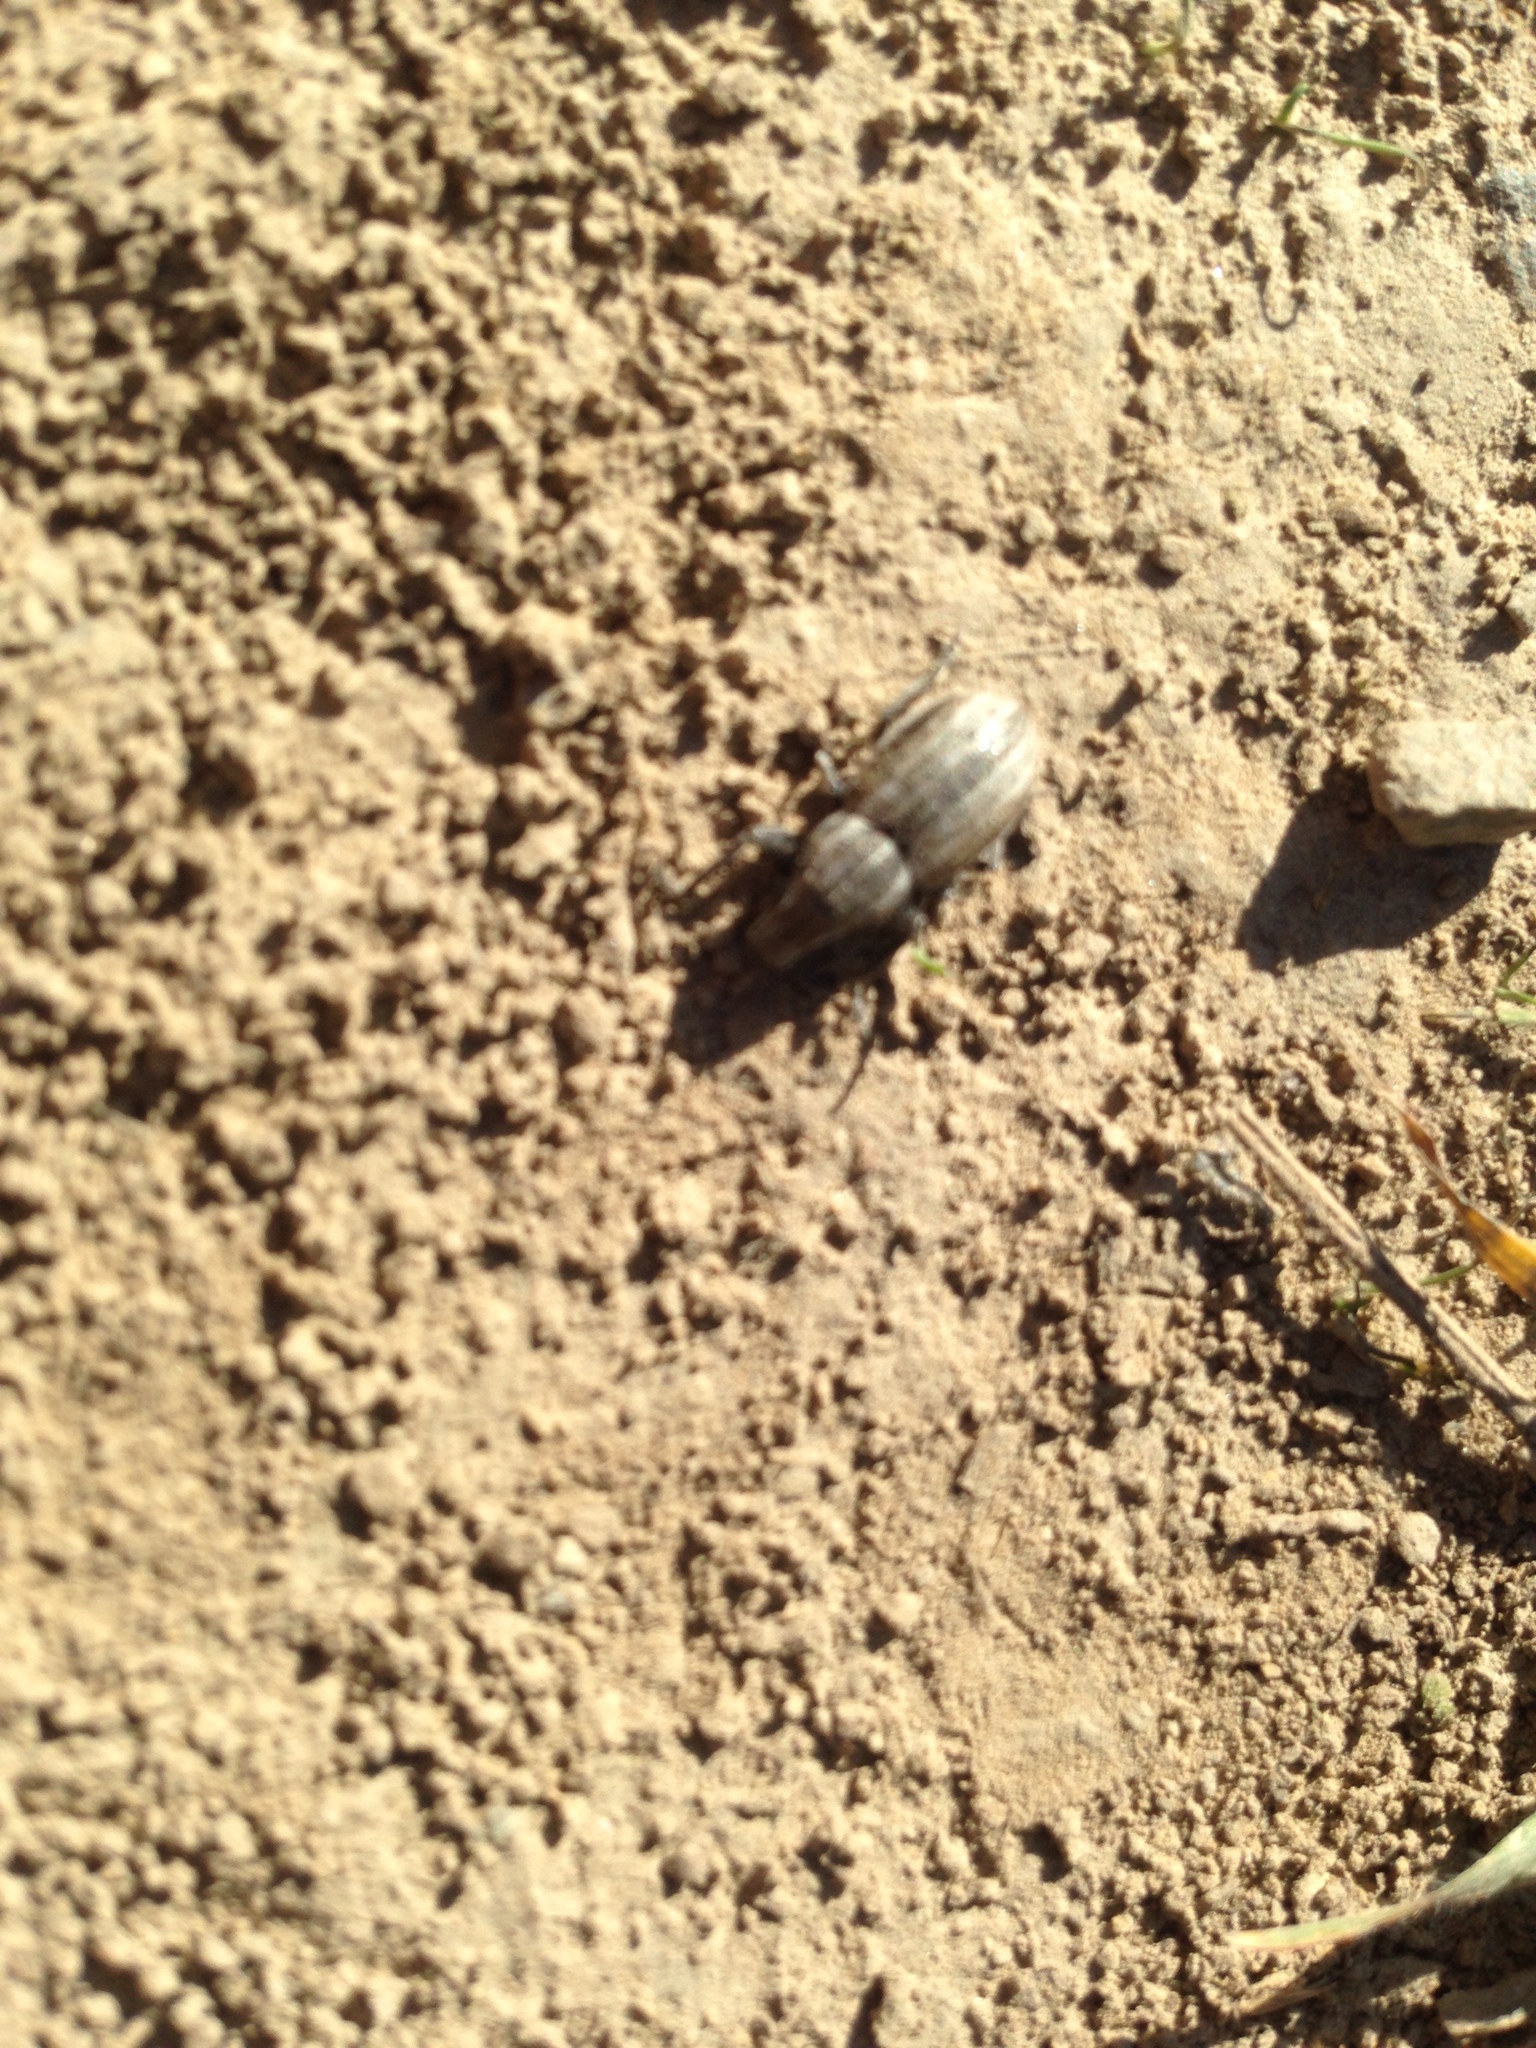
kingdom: Animalia
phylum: Arthropoda
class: Insecta
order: Coleoptera
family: Curculionidae
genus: Naupactus
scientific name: Naupactus leucoloma
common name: Whitefringed beetle
